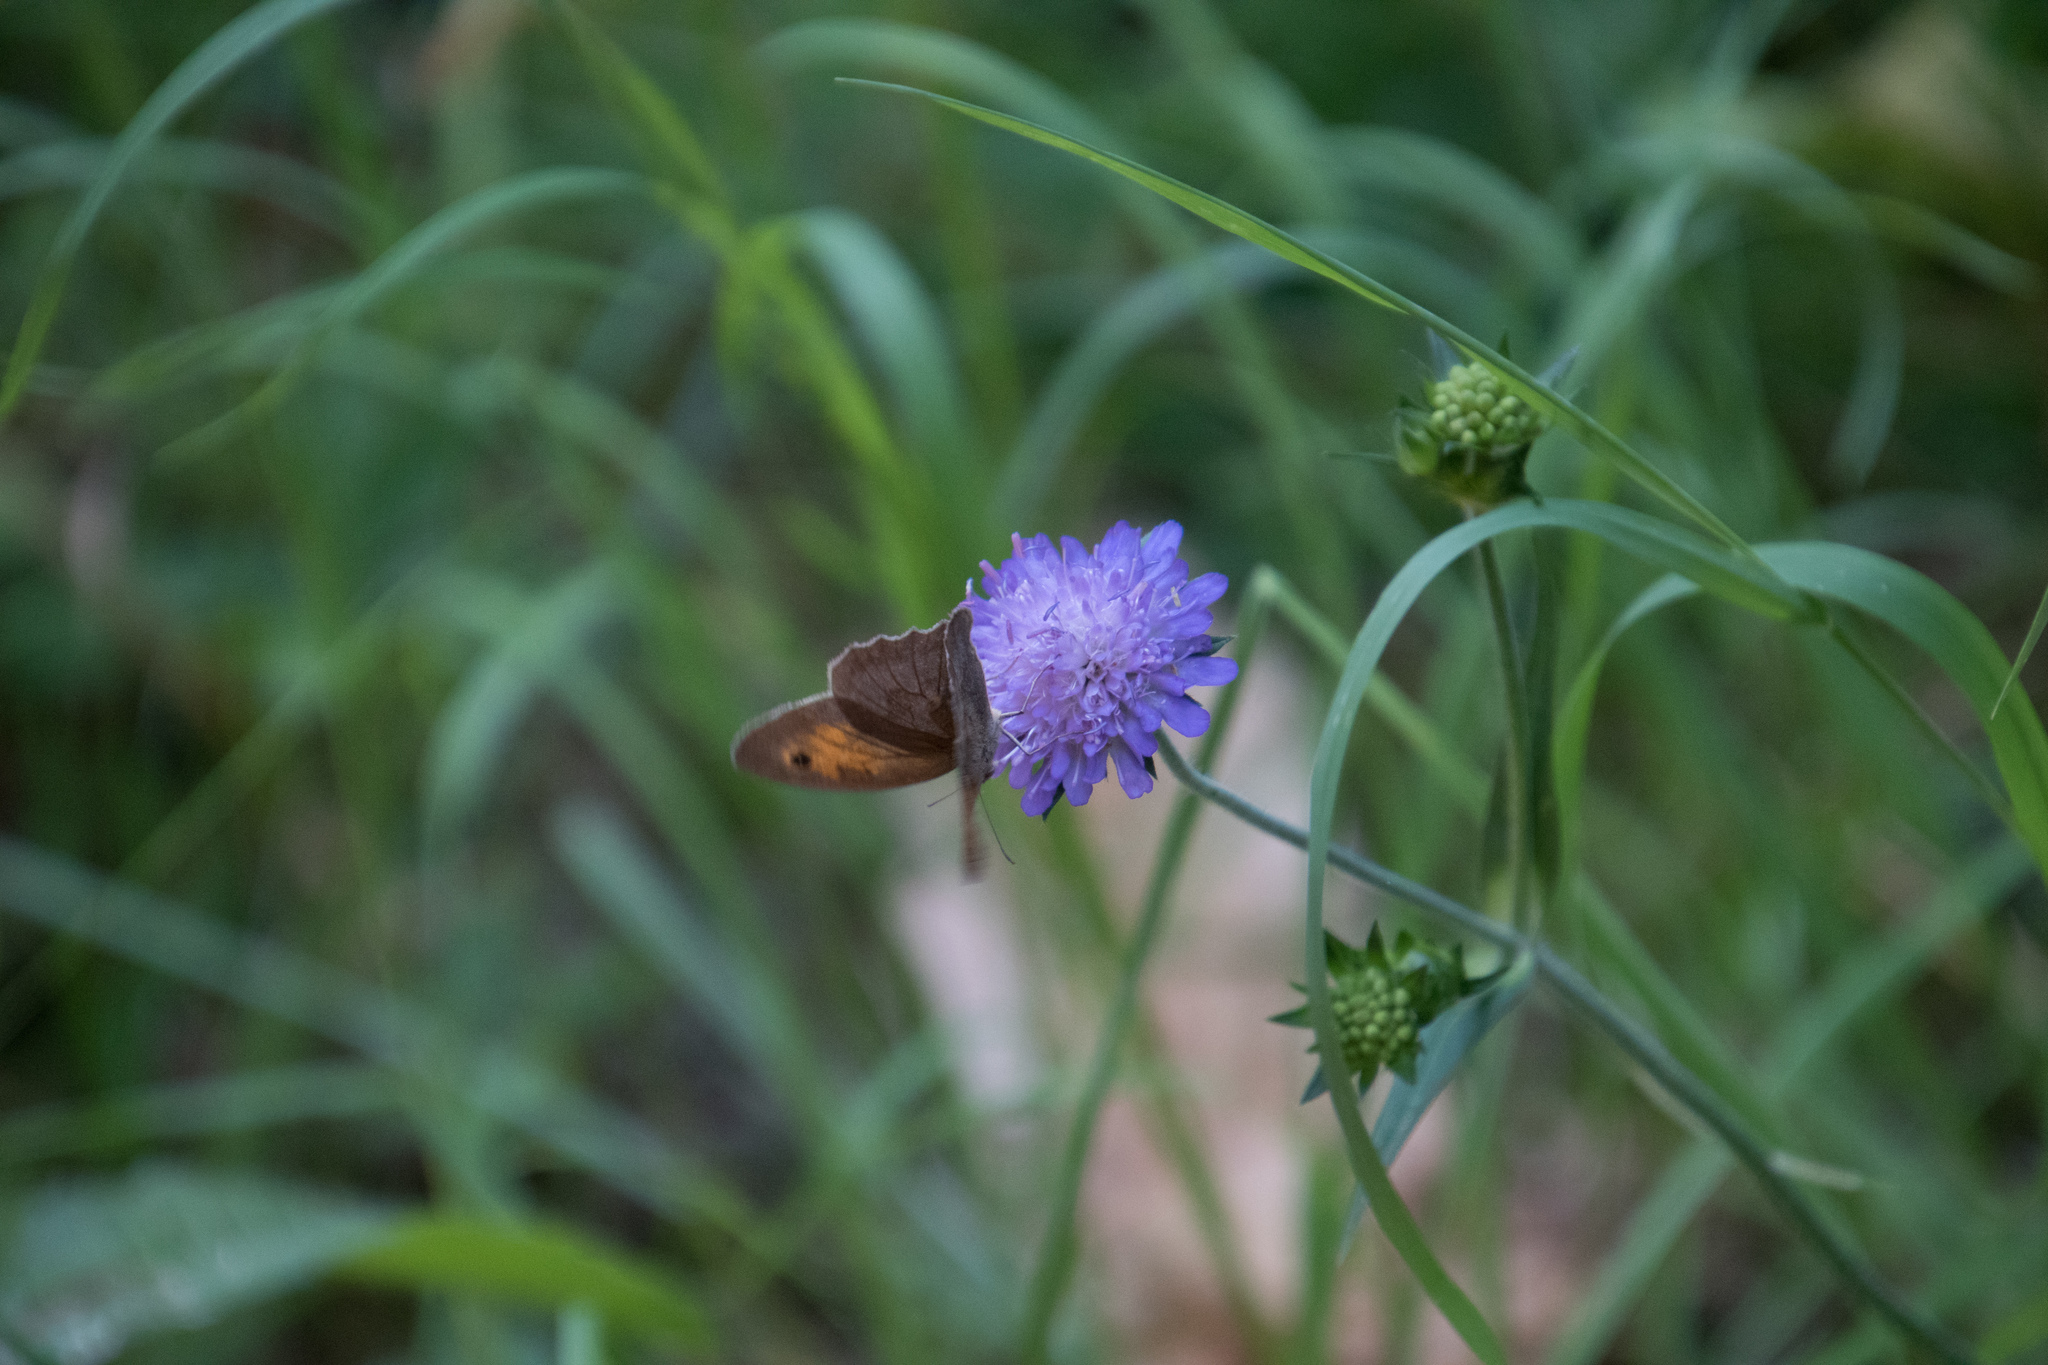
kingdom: Animalia
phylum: Arthropoda
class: Insecta
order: Lepidoptera
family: Nymphalidae
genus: Maniola
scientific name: Maniola jurtina
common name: Meadow brown
